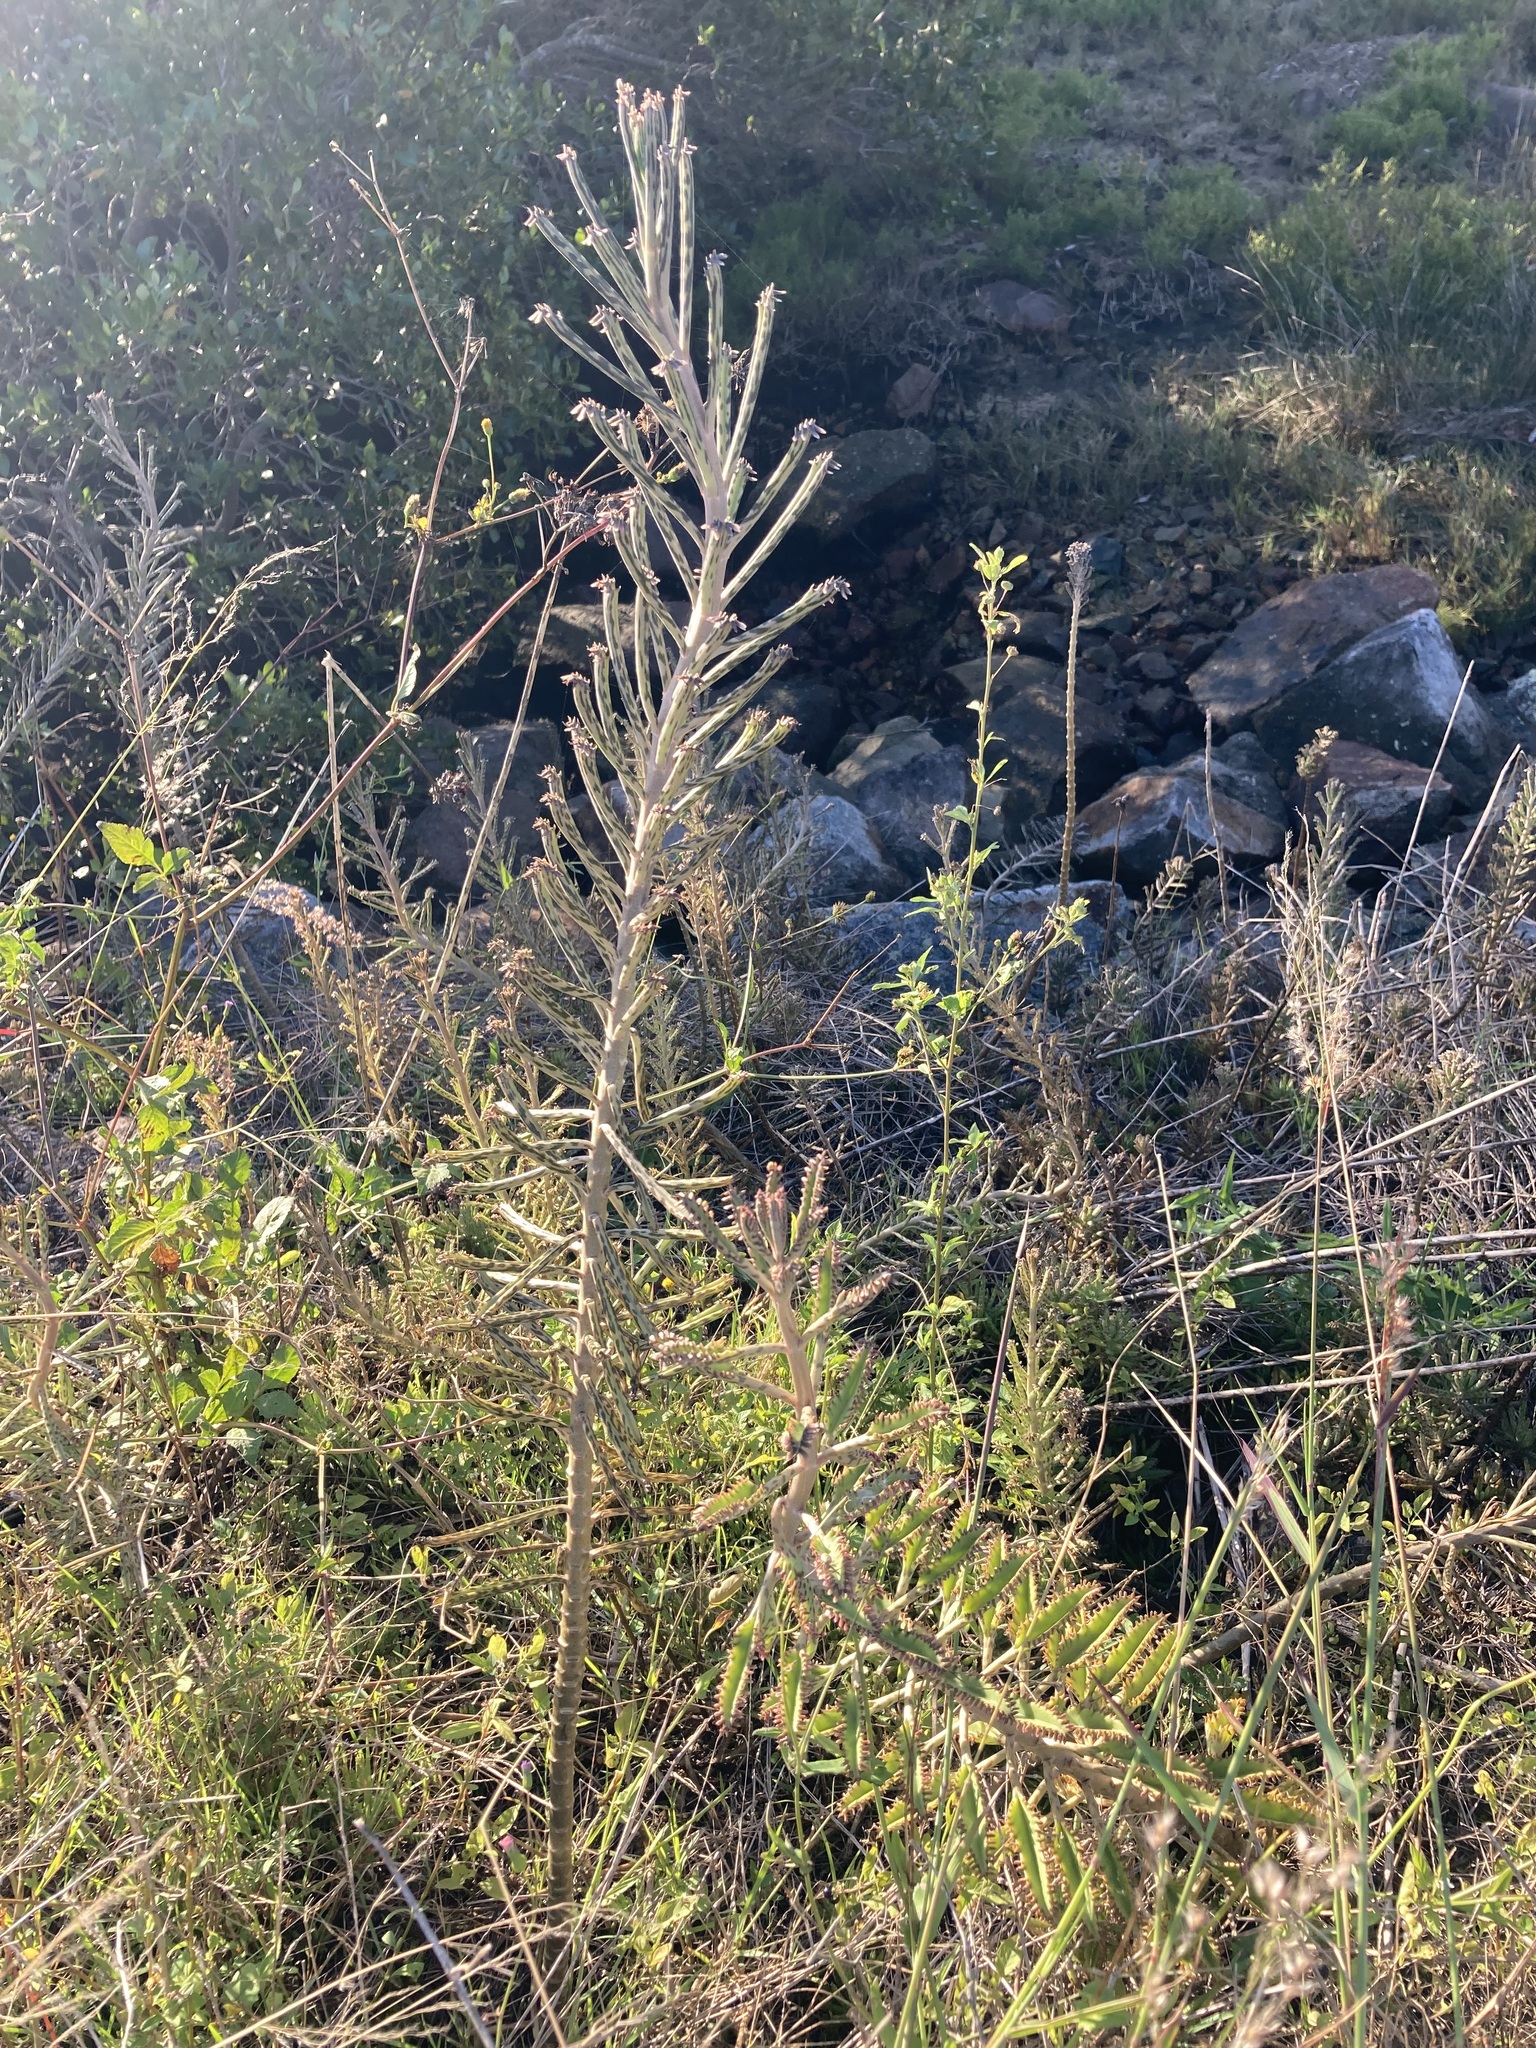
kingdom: Plantae
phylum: Tracheophyta
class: Magnoliopsida
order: Saxifragales
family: Crassulaceae
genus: Kalanchoe
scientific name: Kalanchoe delagoensis
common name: Chandelier plant
